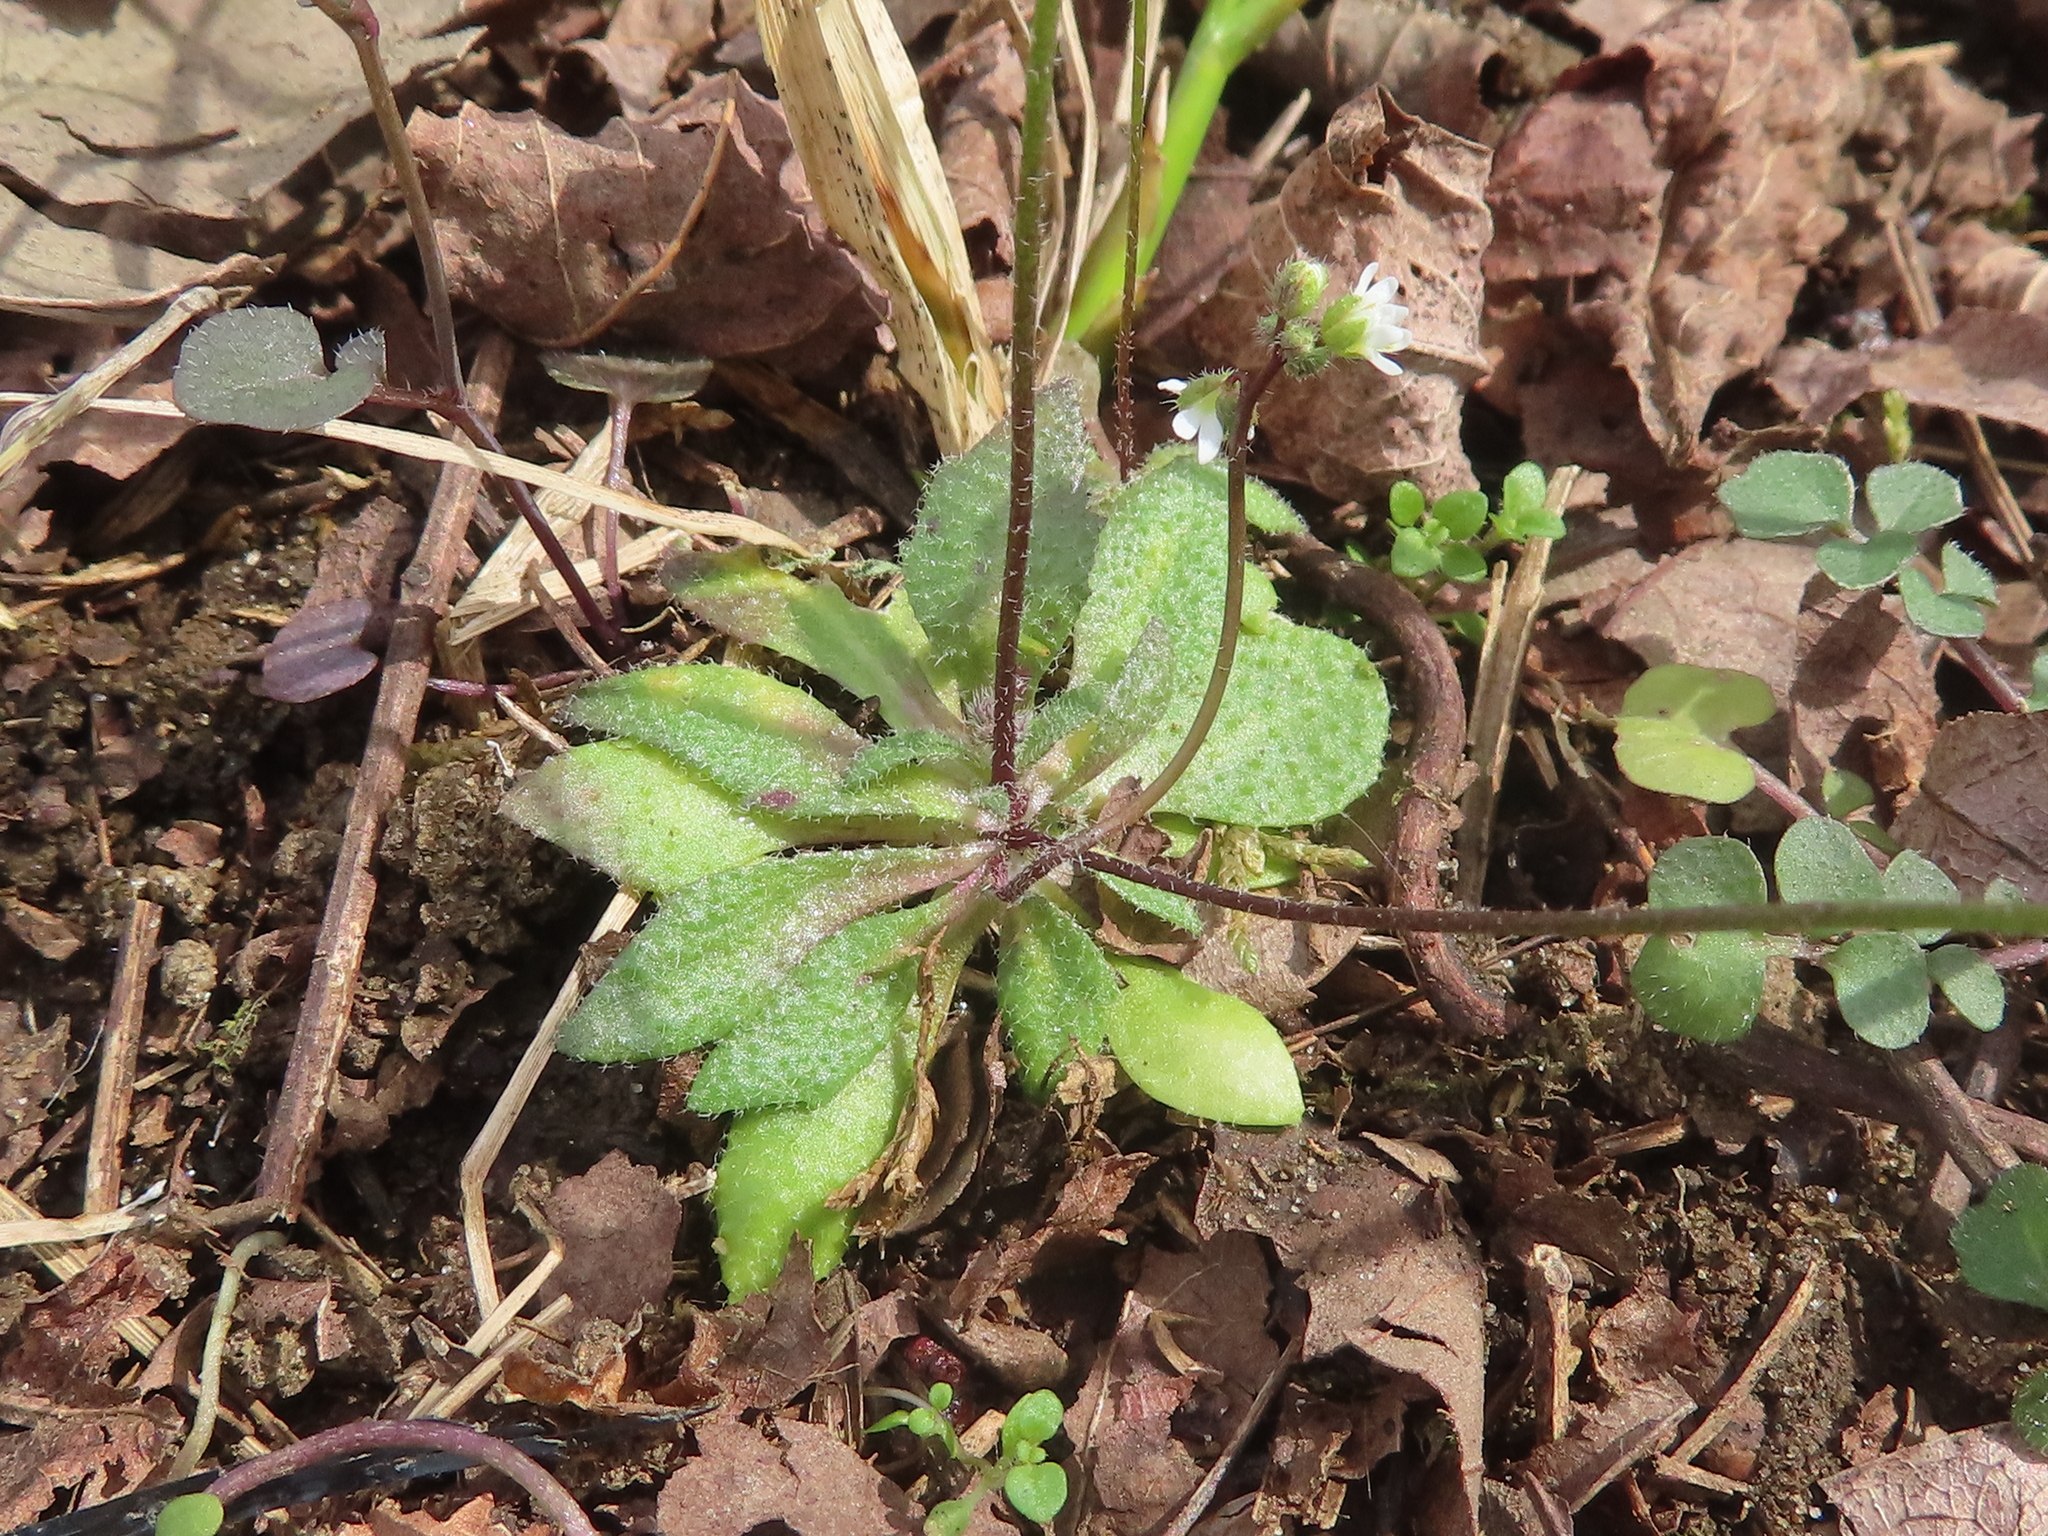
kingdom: Plantae
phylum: Tracheophyta
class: Magnoliopsida
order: Brassicales
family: Brassicaceae
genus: Draba
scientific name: Draba verna
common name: Spring draba
